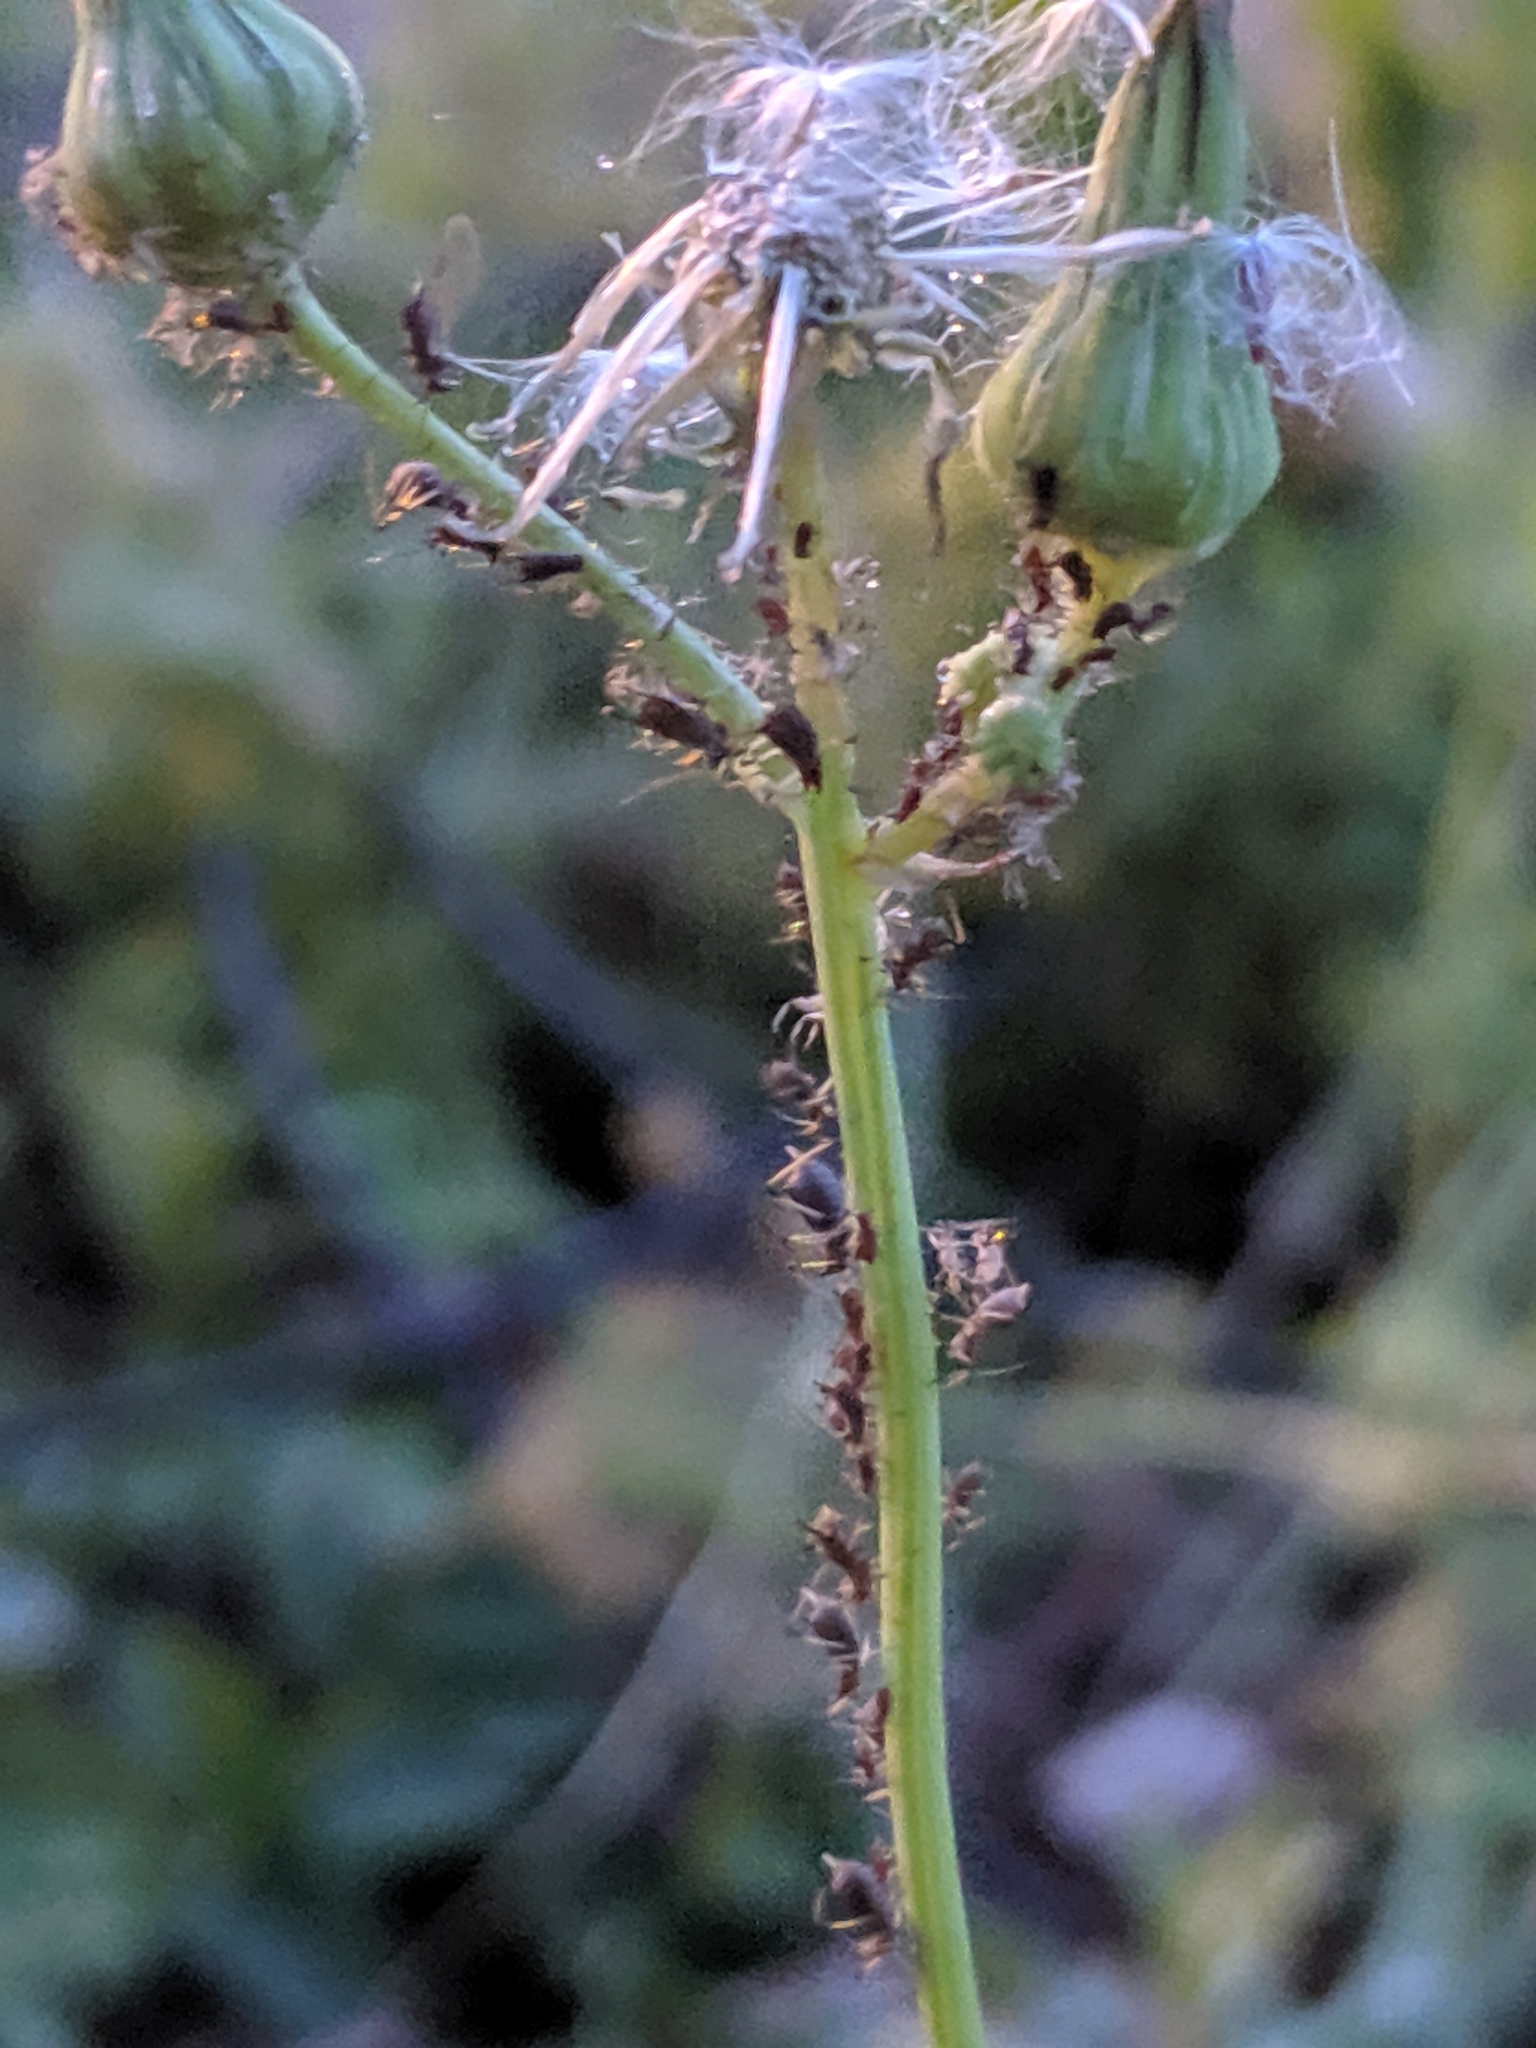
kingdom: Animalia
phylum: Arthropoda
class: Insecta
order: Hemiptera
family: Aphididae
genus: Uroleucon
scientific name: Uroleucon
